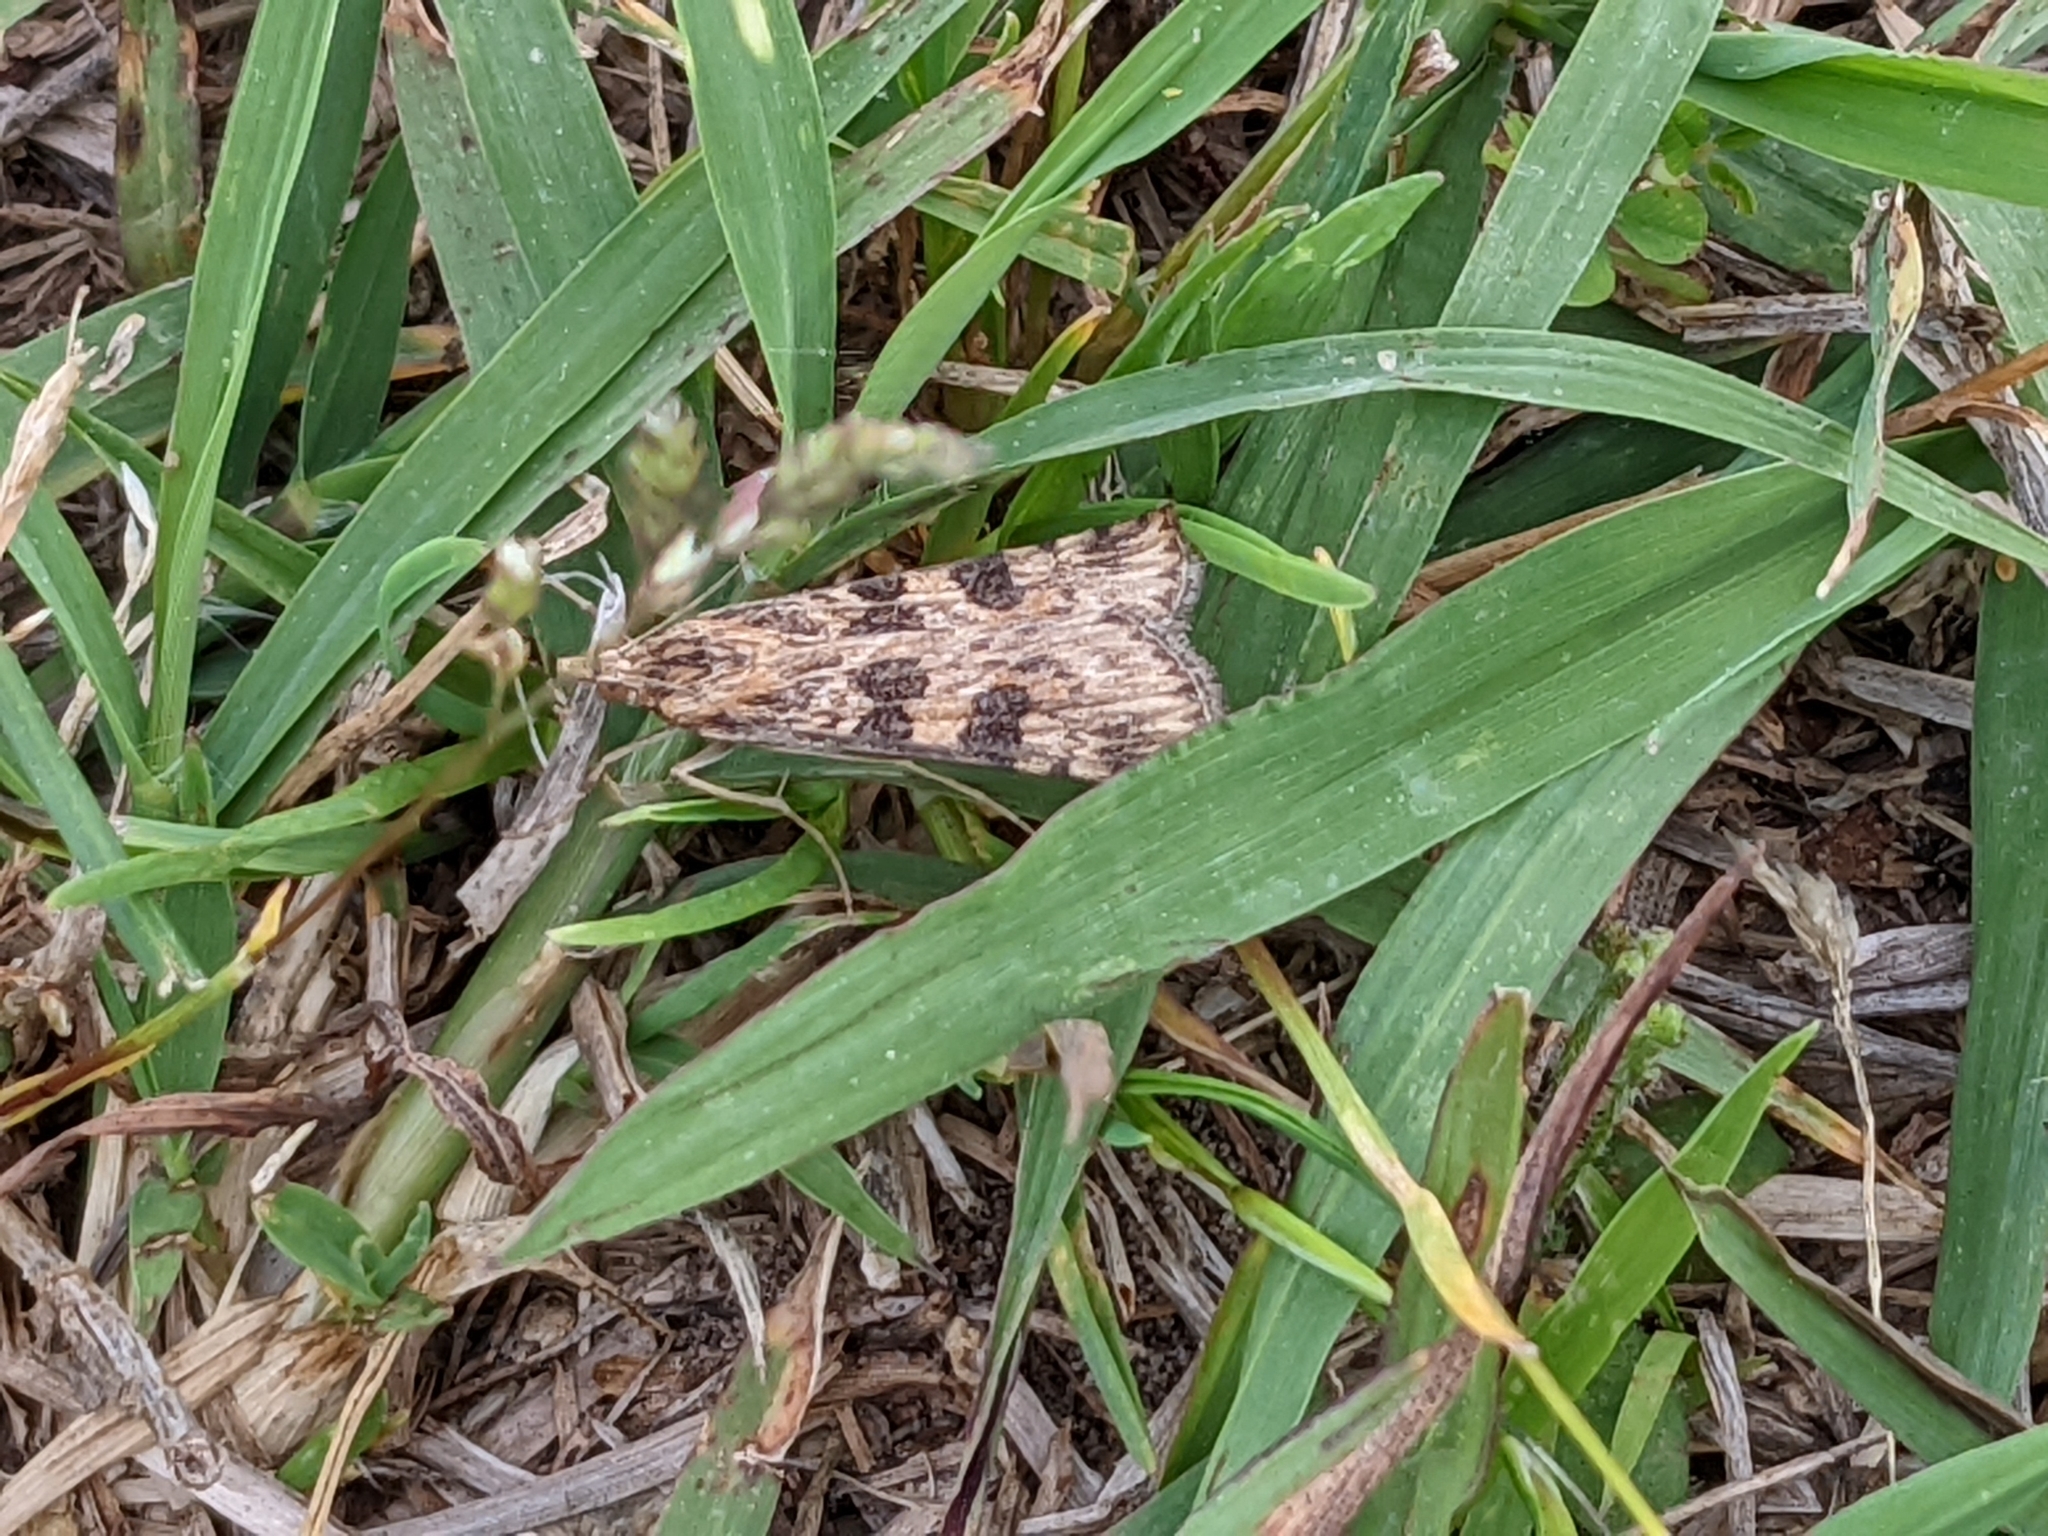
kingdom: Animalia
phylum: Arthropoda
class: Insecta
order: Lepidoptera
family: Crambidae
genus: Nomophila
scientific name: Nomophila nearctica
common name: American rush veneer
